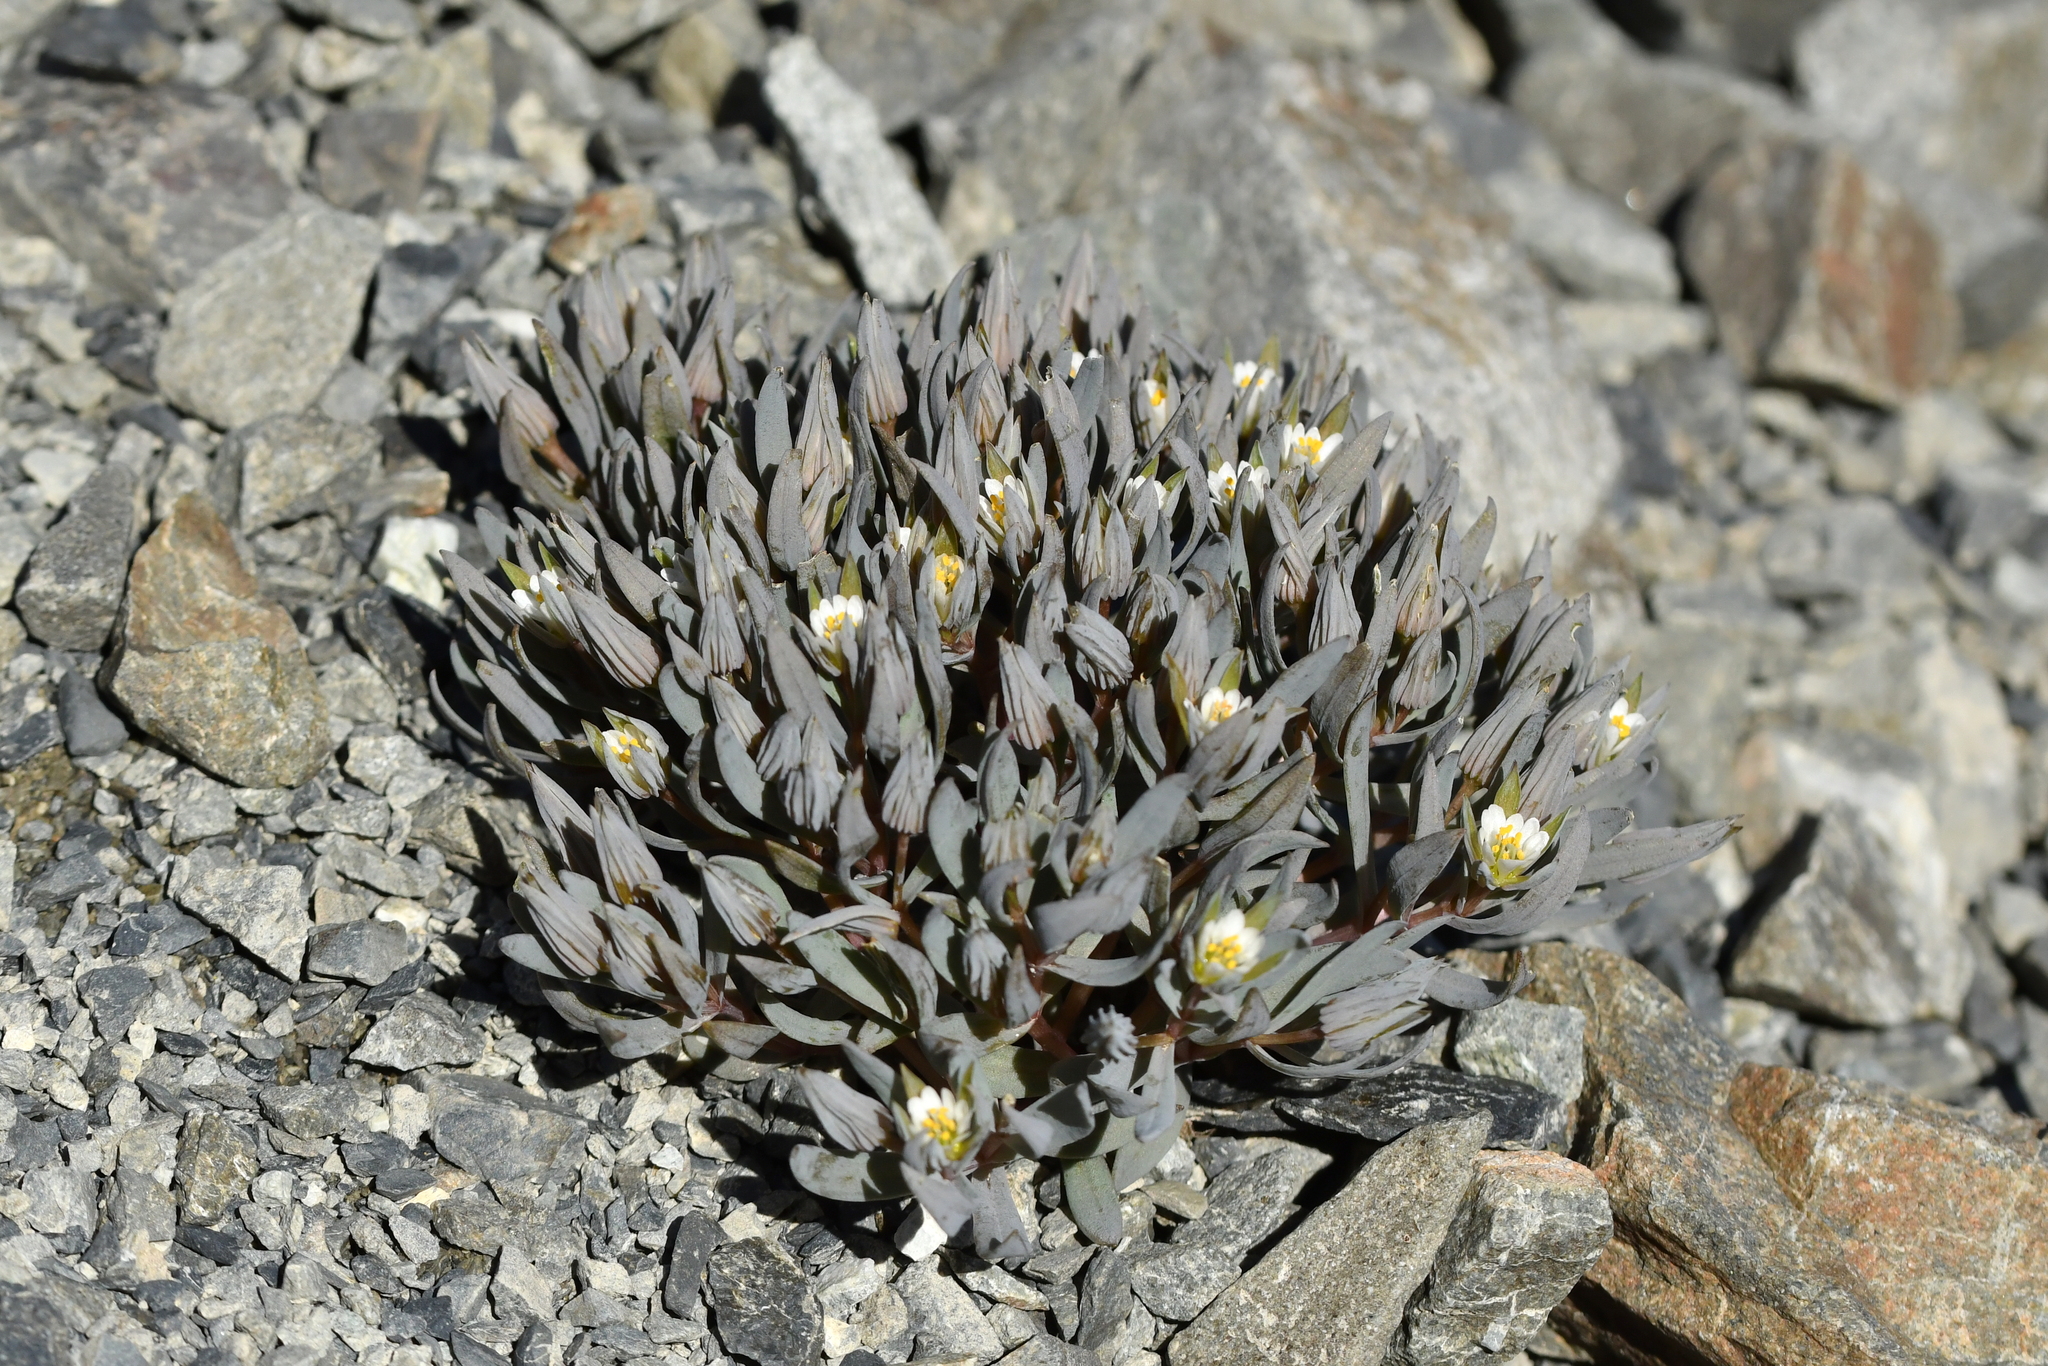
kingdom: Plantae
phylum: Tracheophyta
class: Magnoliopsida
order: Caryophyllales
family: Caryophyllaceae
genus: Stellaria
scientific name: Stellaria roughii
